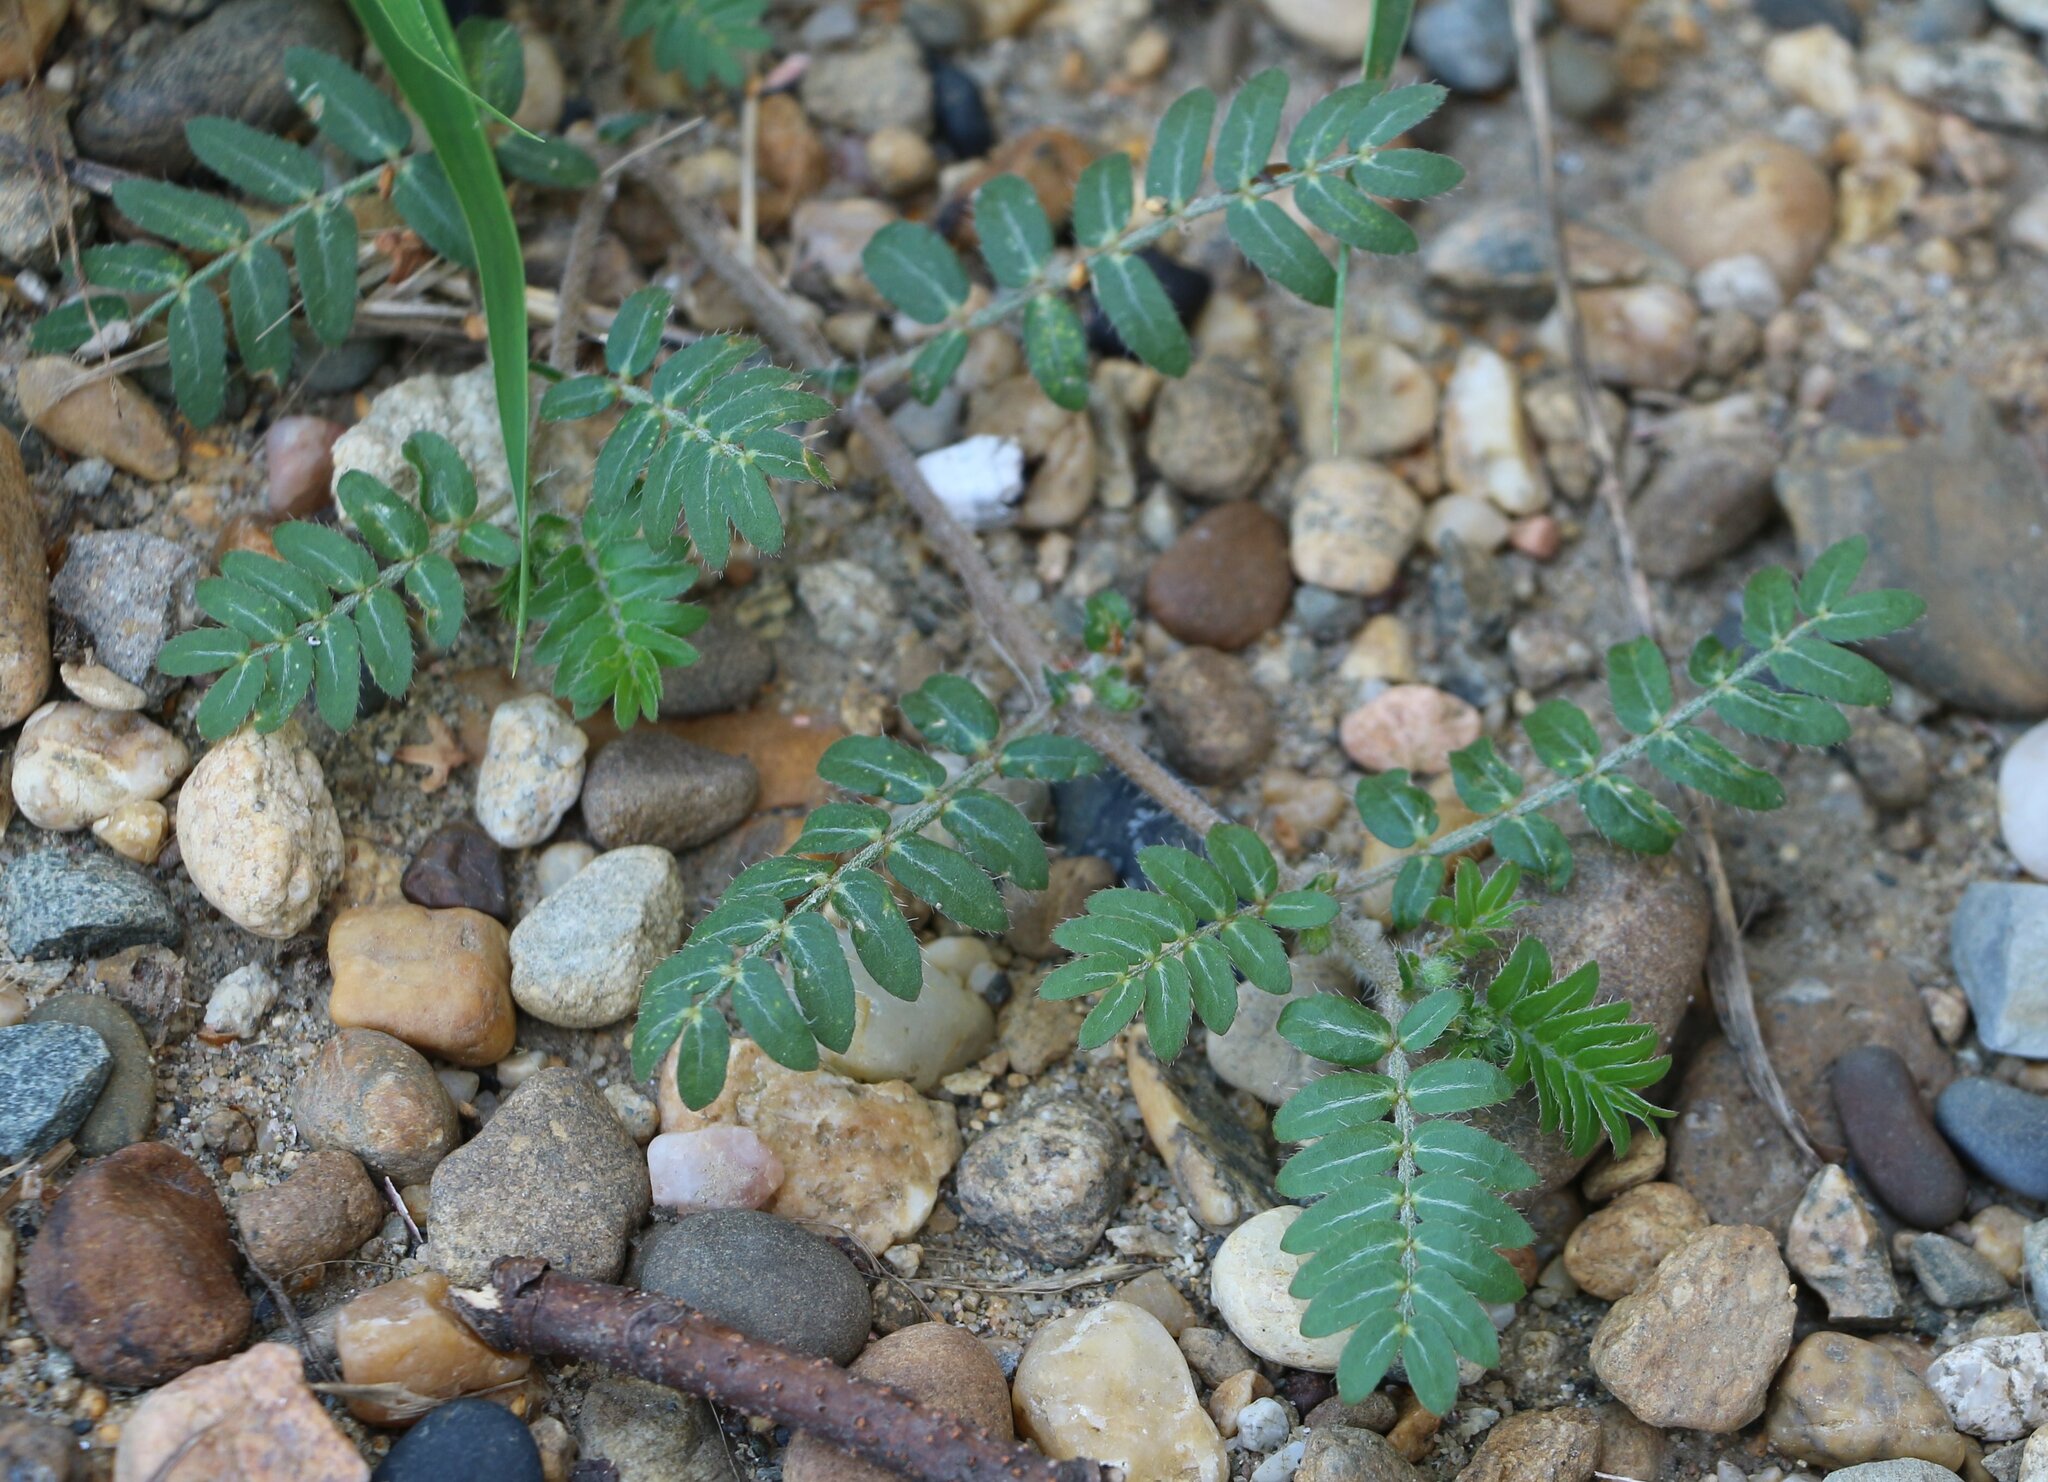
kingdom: Plantae
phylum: Tracheophyta
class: Magnoliopsida
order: Zygophyllales
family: Zygophyllaceae
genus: Tribulus
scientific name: Tribulus terrestris
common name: Puncturevine
